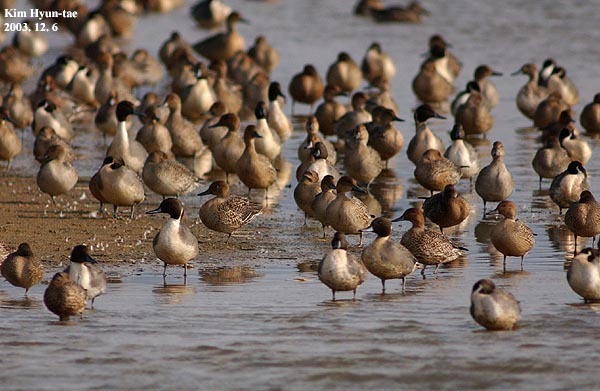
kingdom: Animalia
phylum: Chordata
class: Aves
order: Anseriformes
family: Anatidae
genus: Anas
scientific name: Anas acuta
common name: Northern pintail
